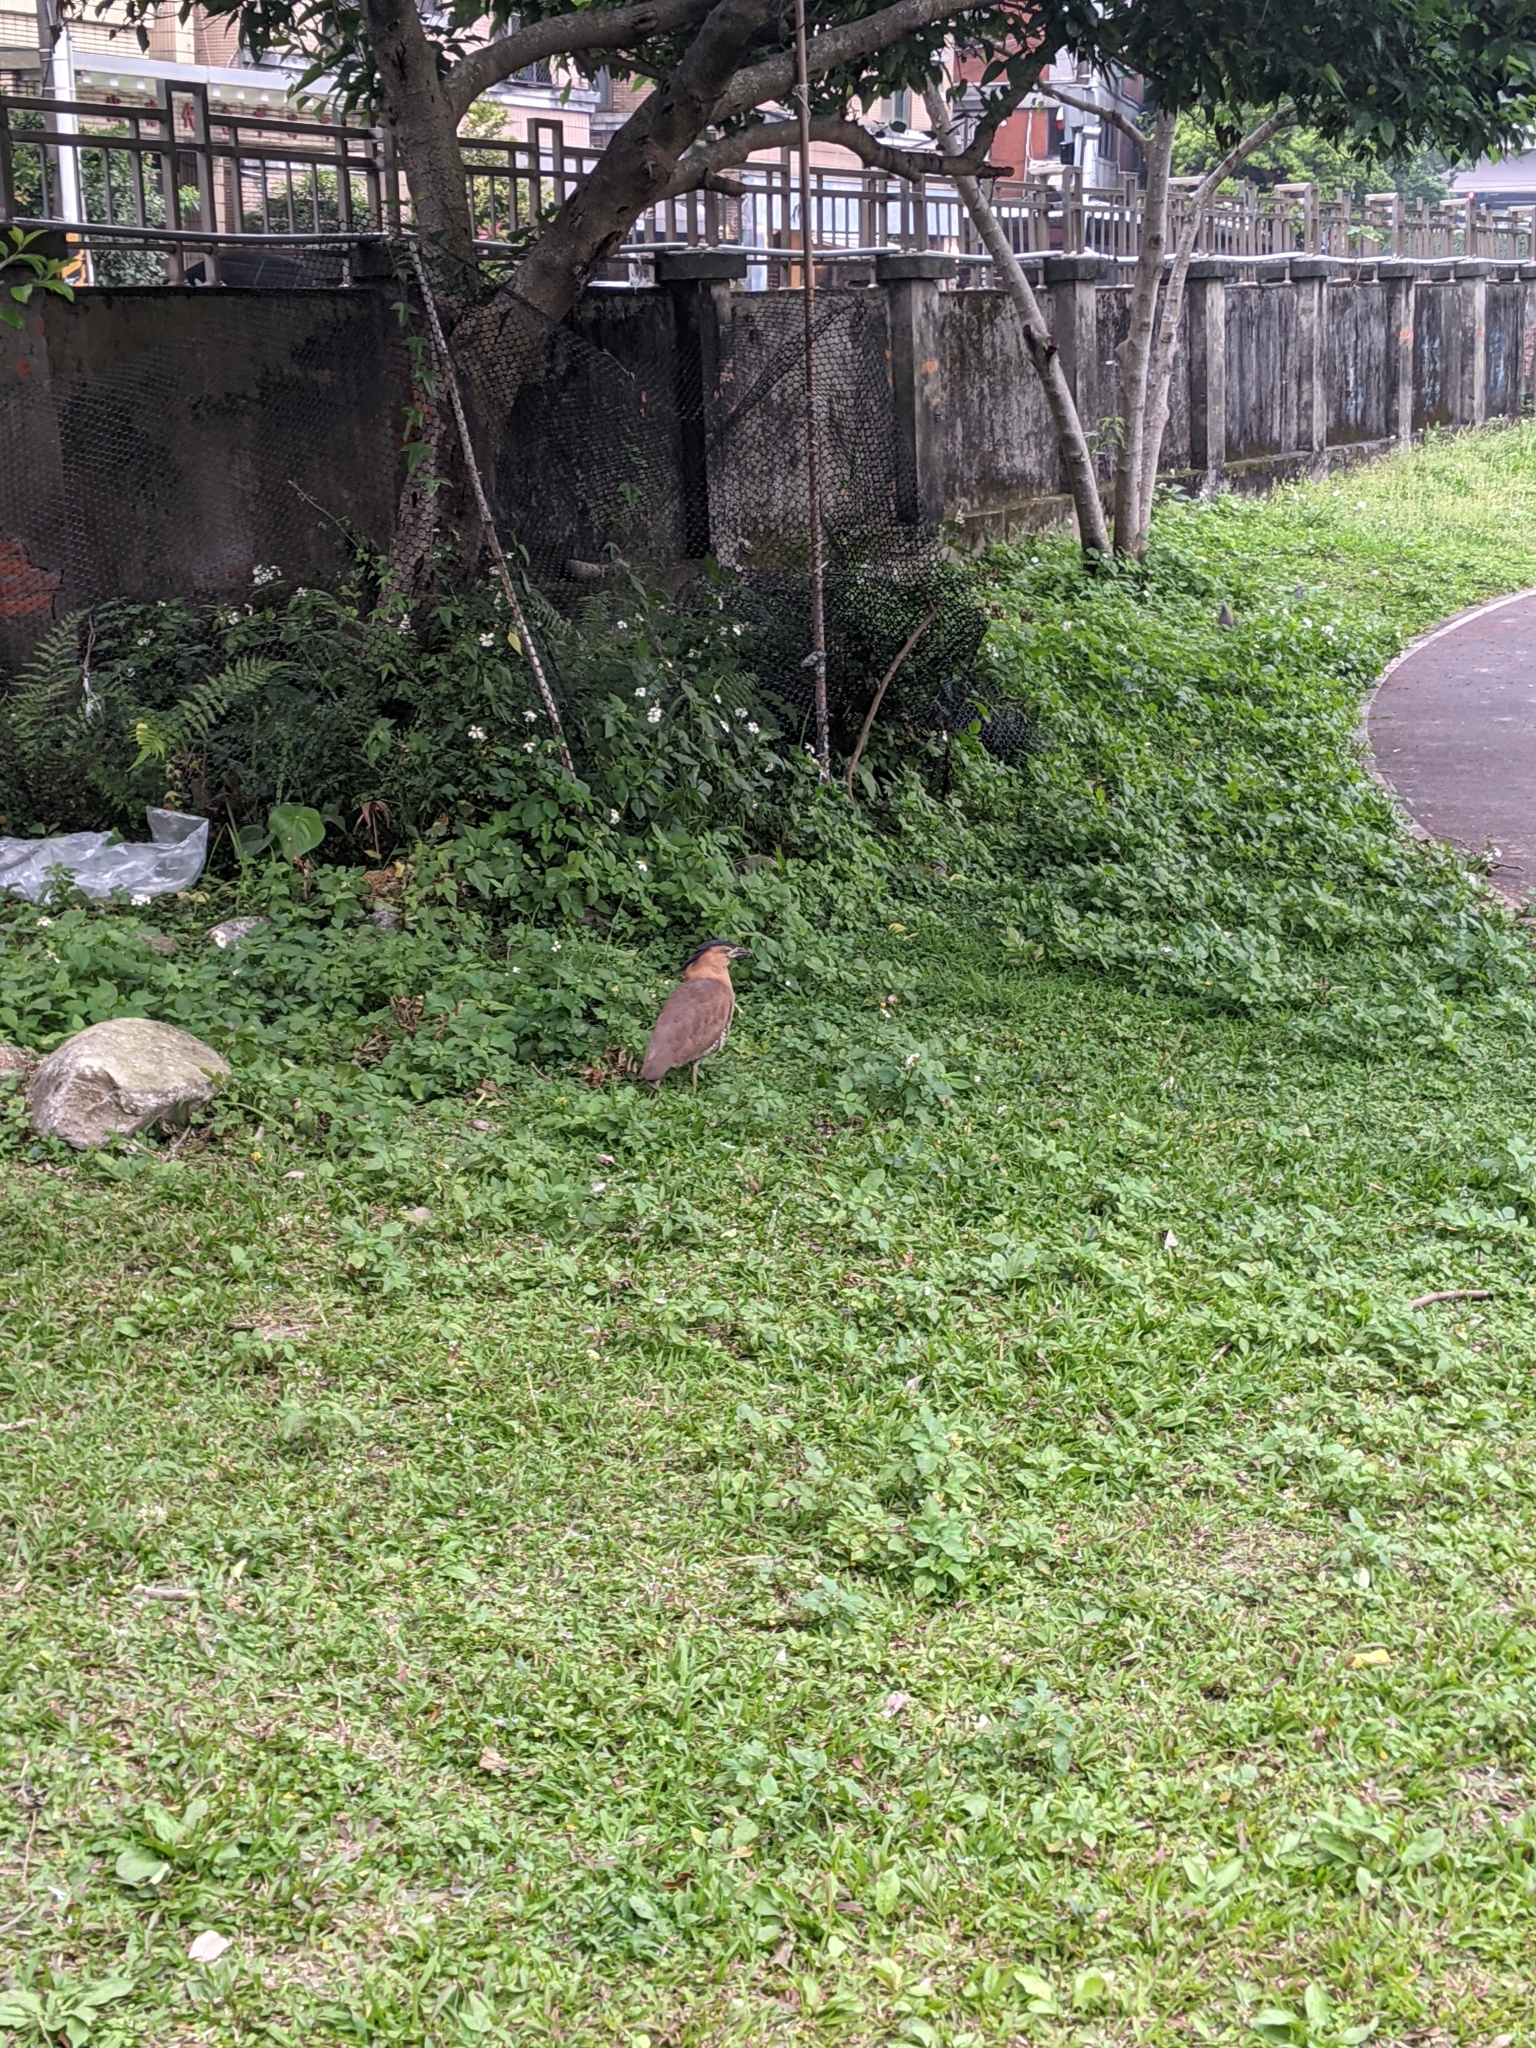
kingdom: Animalia
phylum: Chordata
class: Aves
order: Pelecaniformes
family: Ardeidae
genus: Gorsachius
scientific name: Gorsachius melanolophus
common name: Malayan night heron
